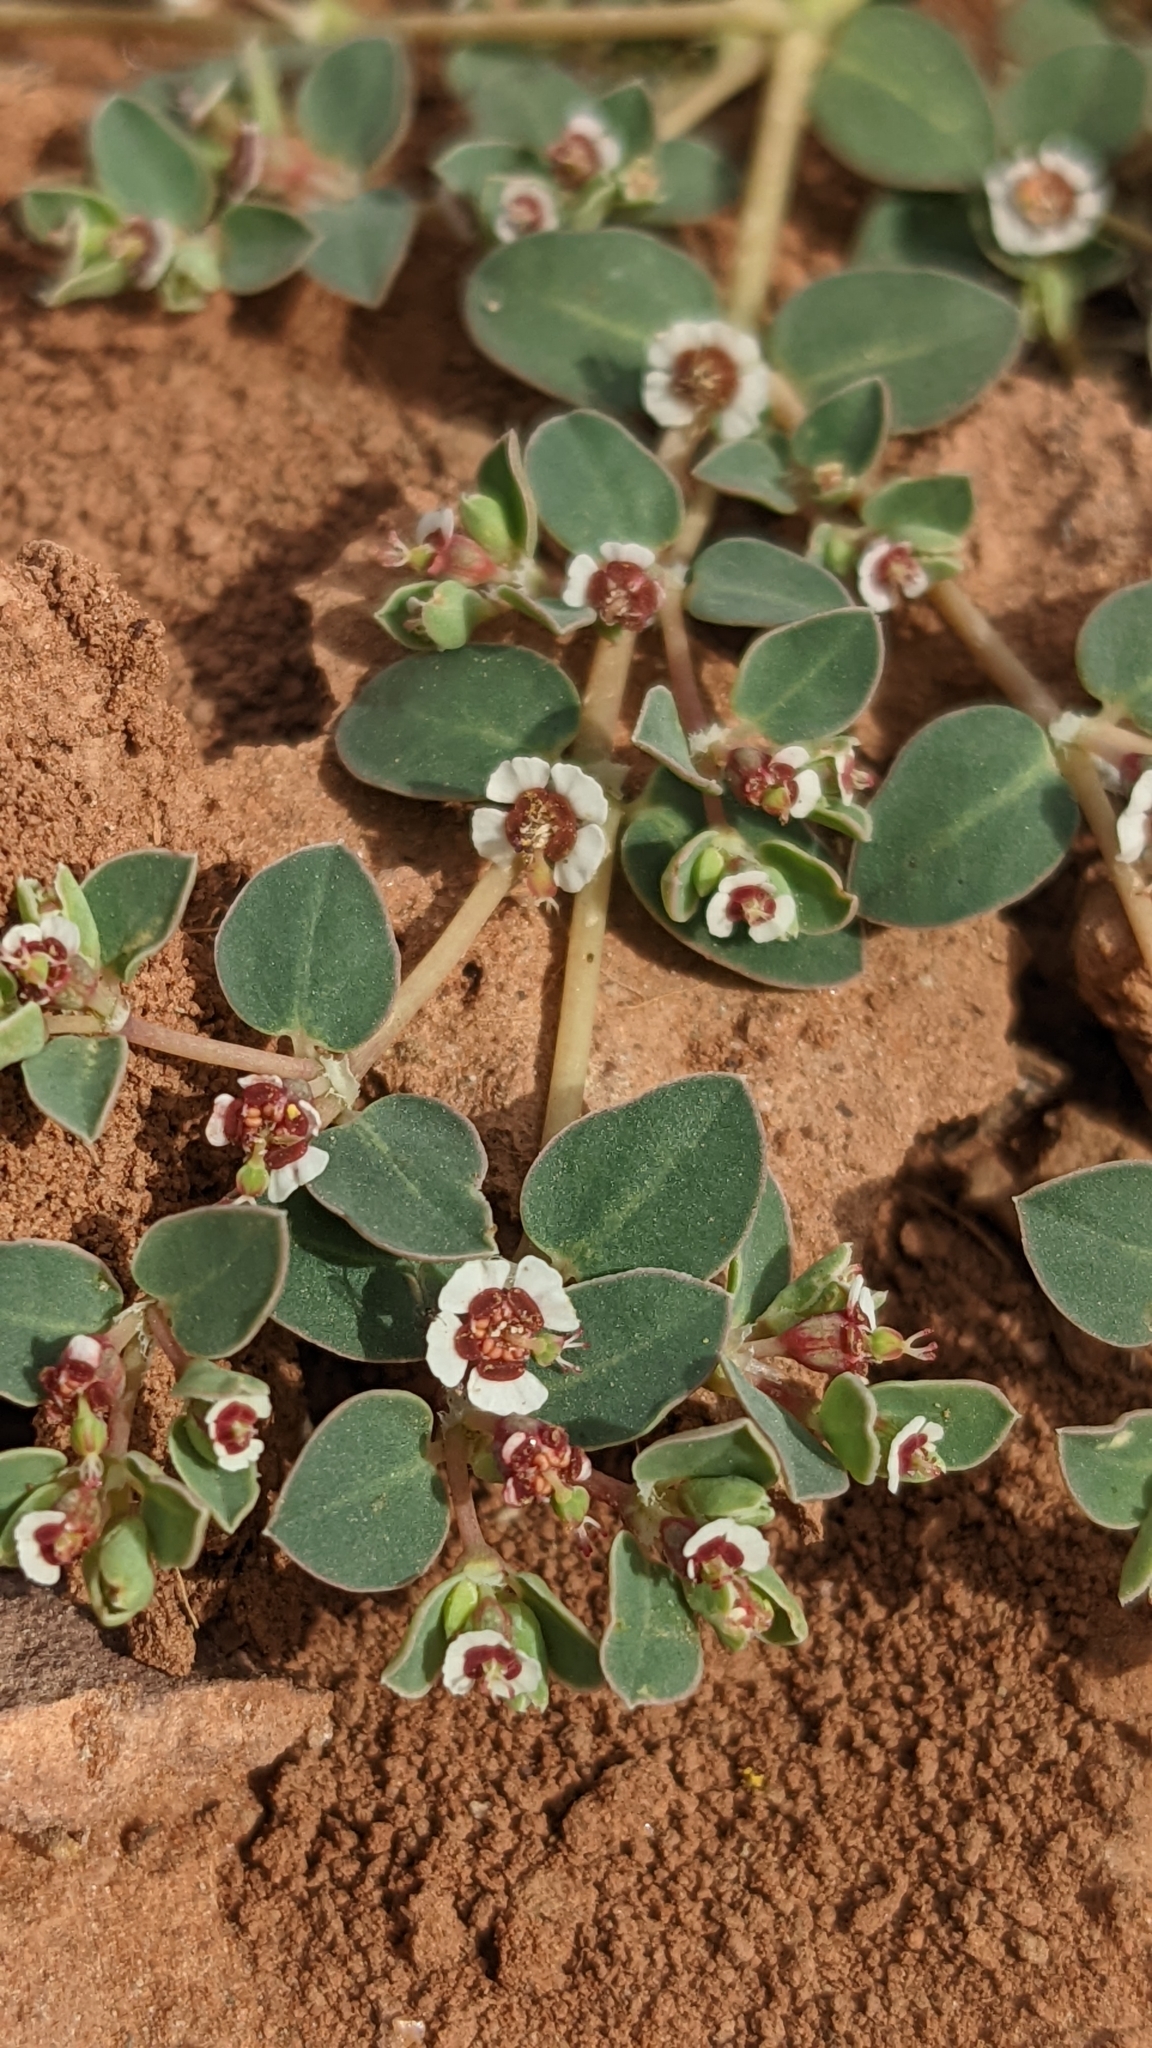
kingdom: Plantae
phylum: Tracheophyta
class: Magnoliopsida
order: Malpighiales
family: Euphorbiaceae
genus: Euphorbia
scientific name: Euphorbia albomarginata
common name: Whitemargin sandmat
